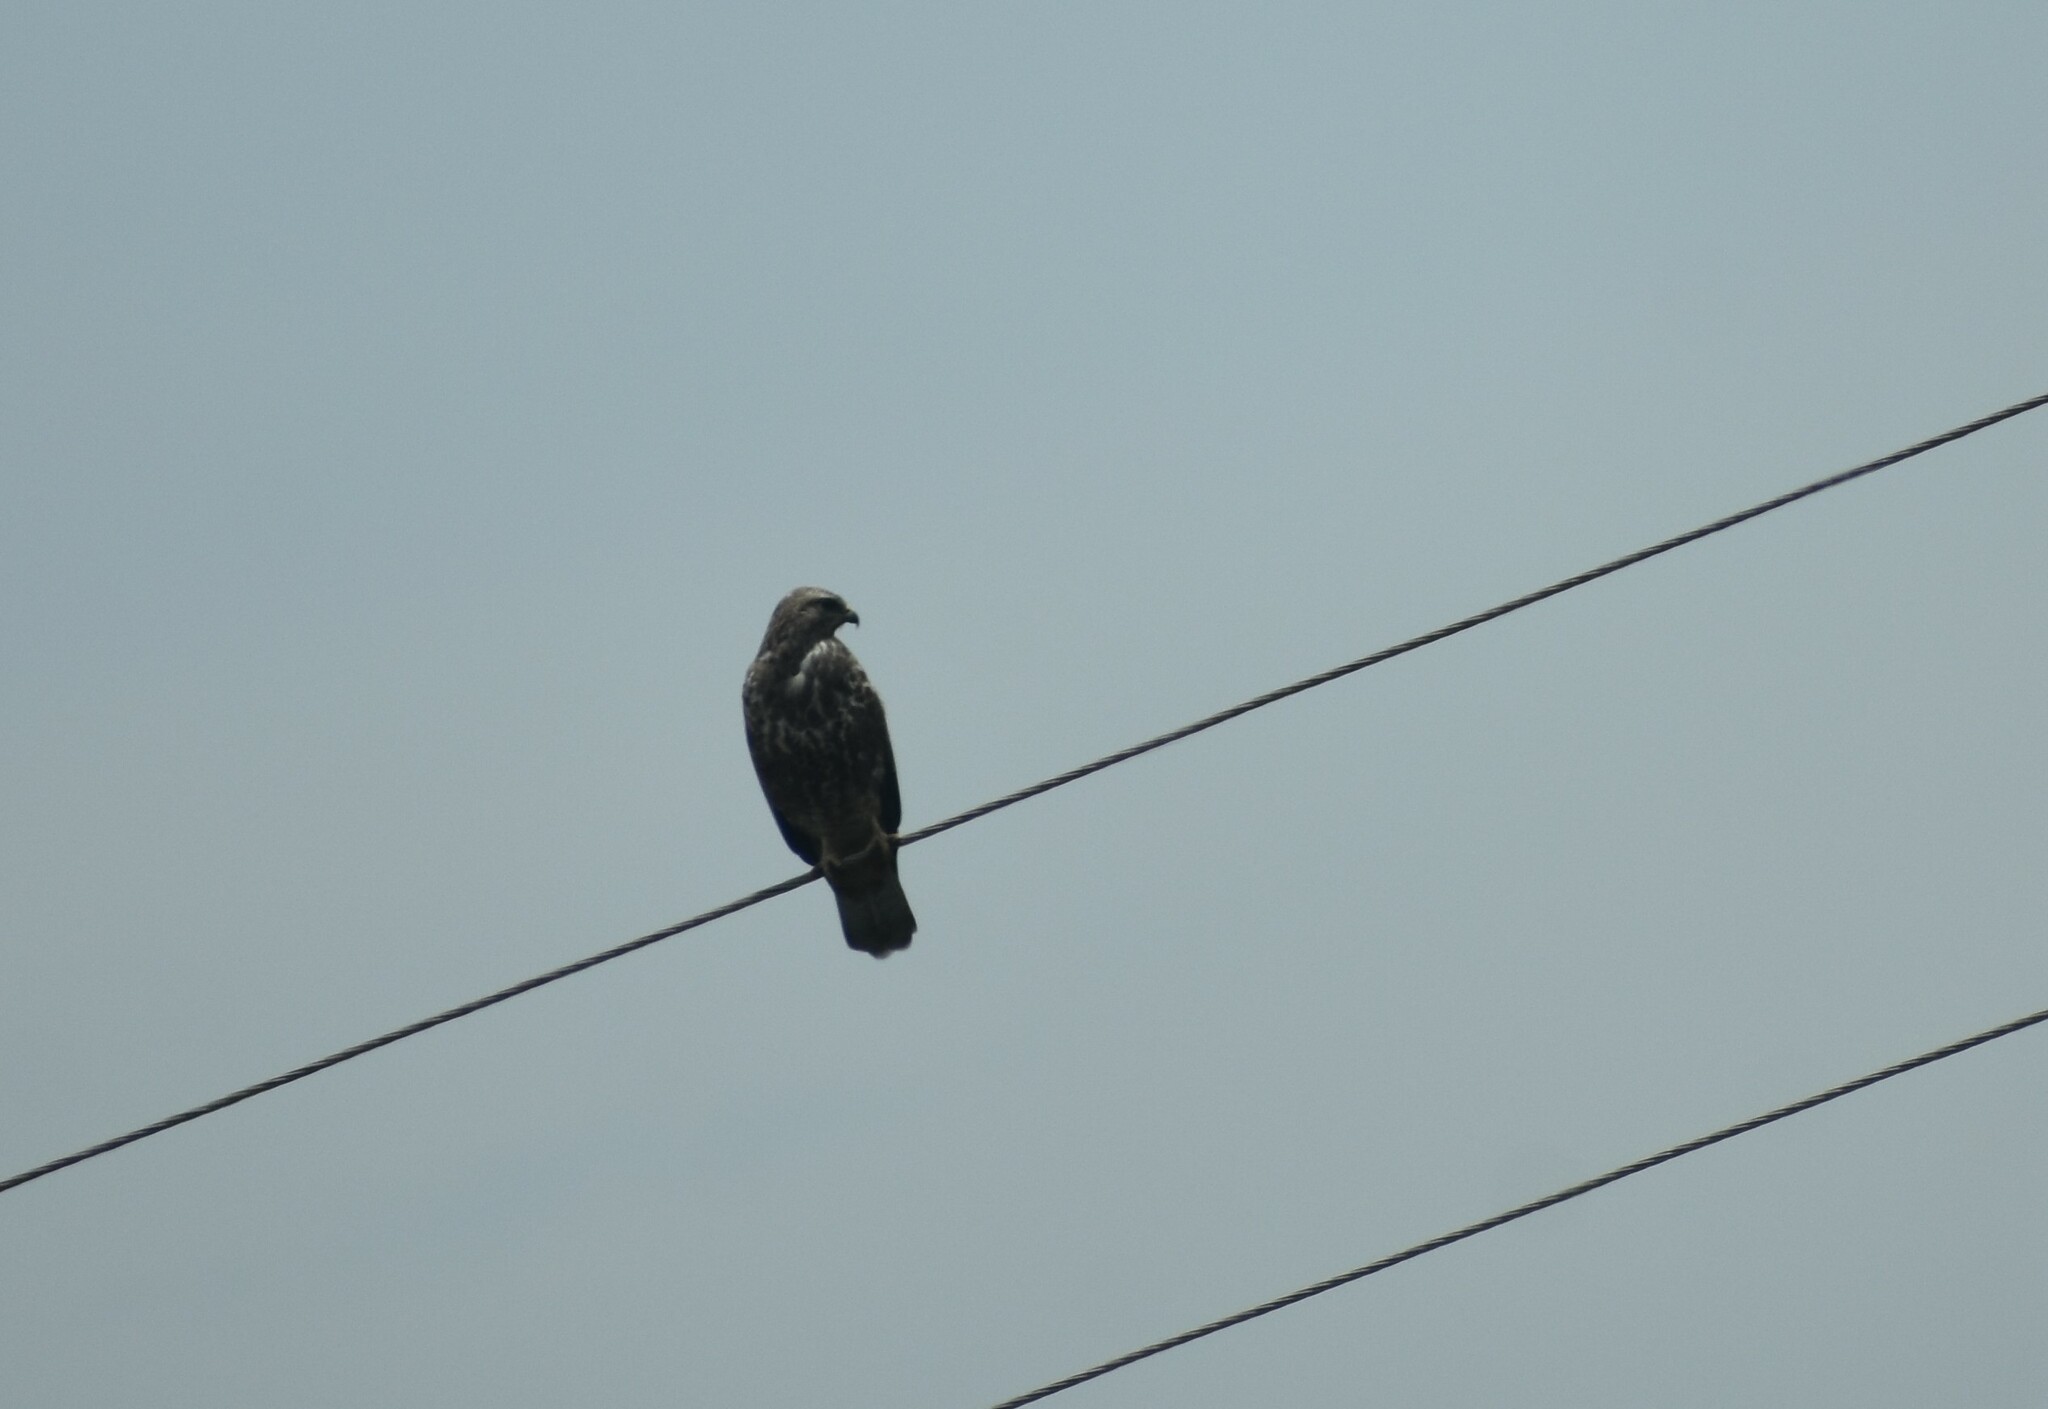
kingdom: Animalia
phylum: Chordata
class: Aves
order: Accipitriformes
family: Accipitridae
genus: Buteo
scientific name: Buteo buteo
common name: Common buzzard
